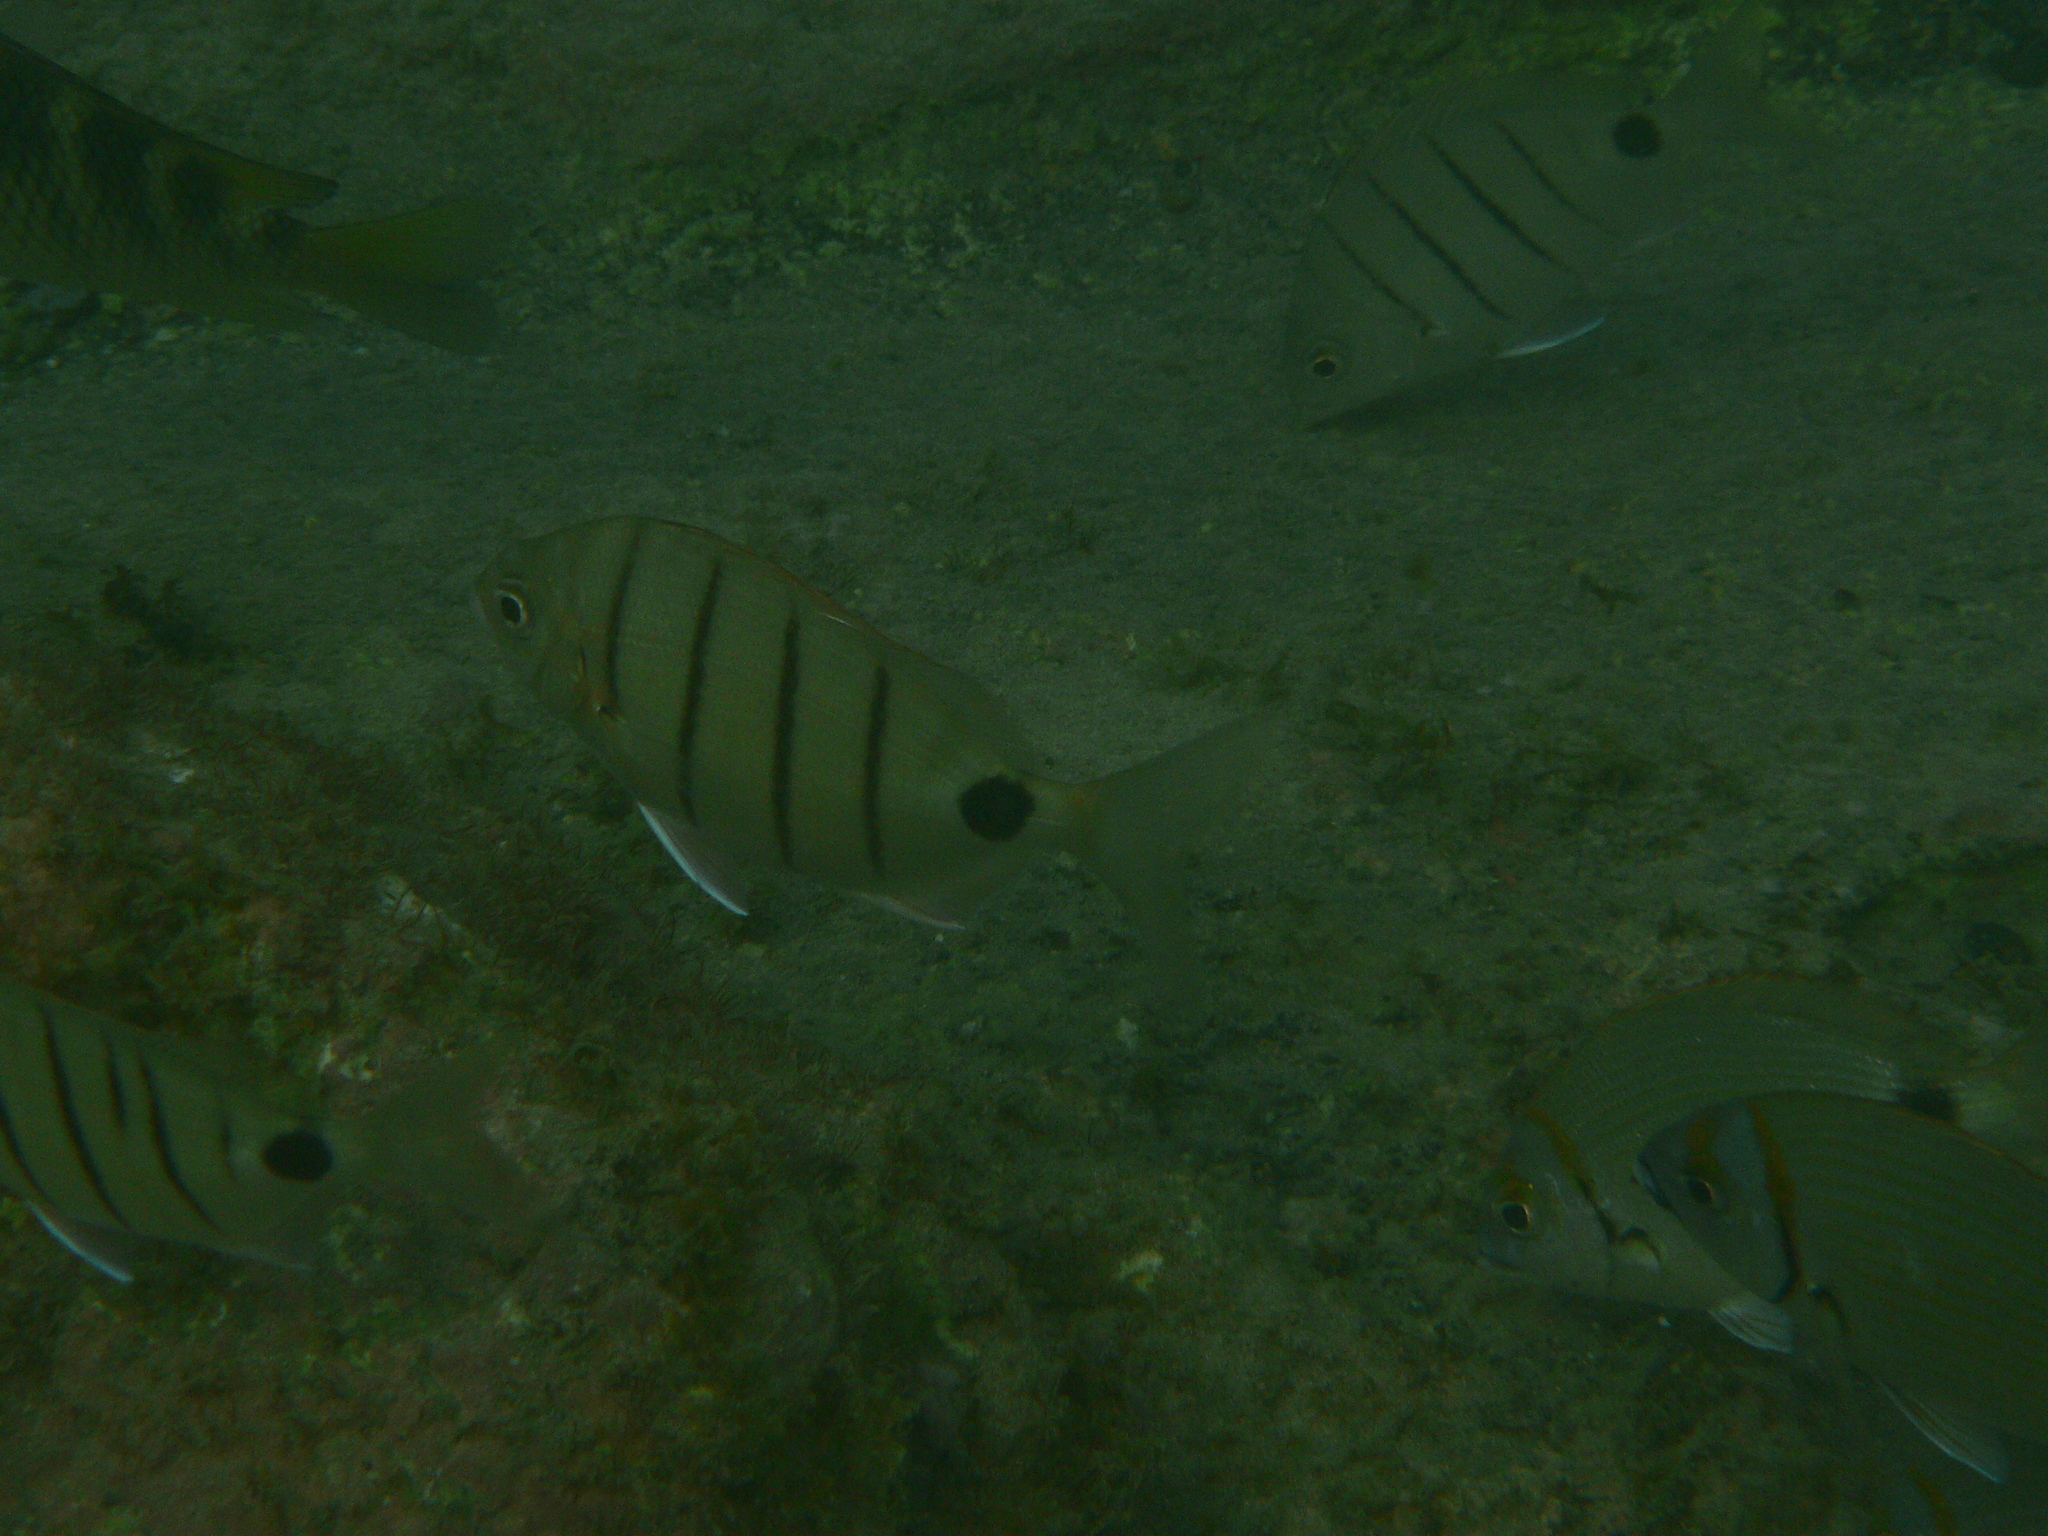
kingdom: Animalia
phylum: Chordata
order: Perciformes
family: Sparidae
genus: Diplodus
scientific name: Diplodus lineatus
